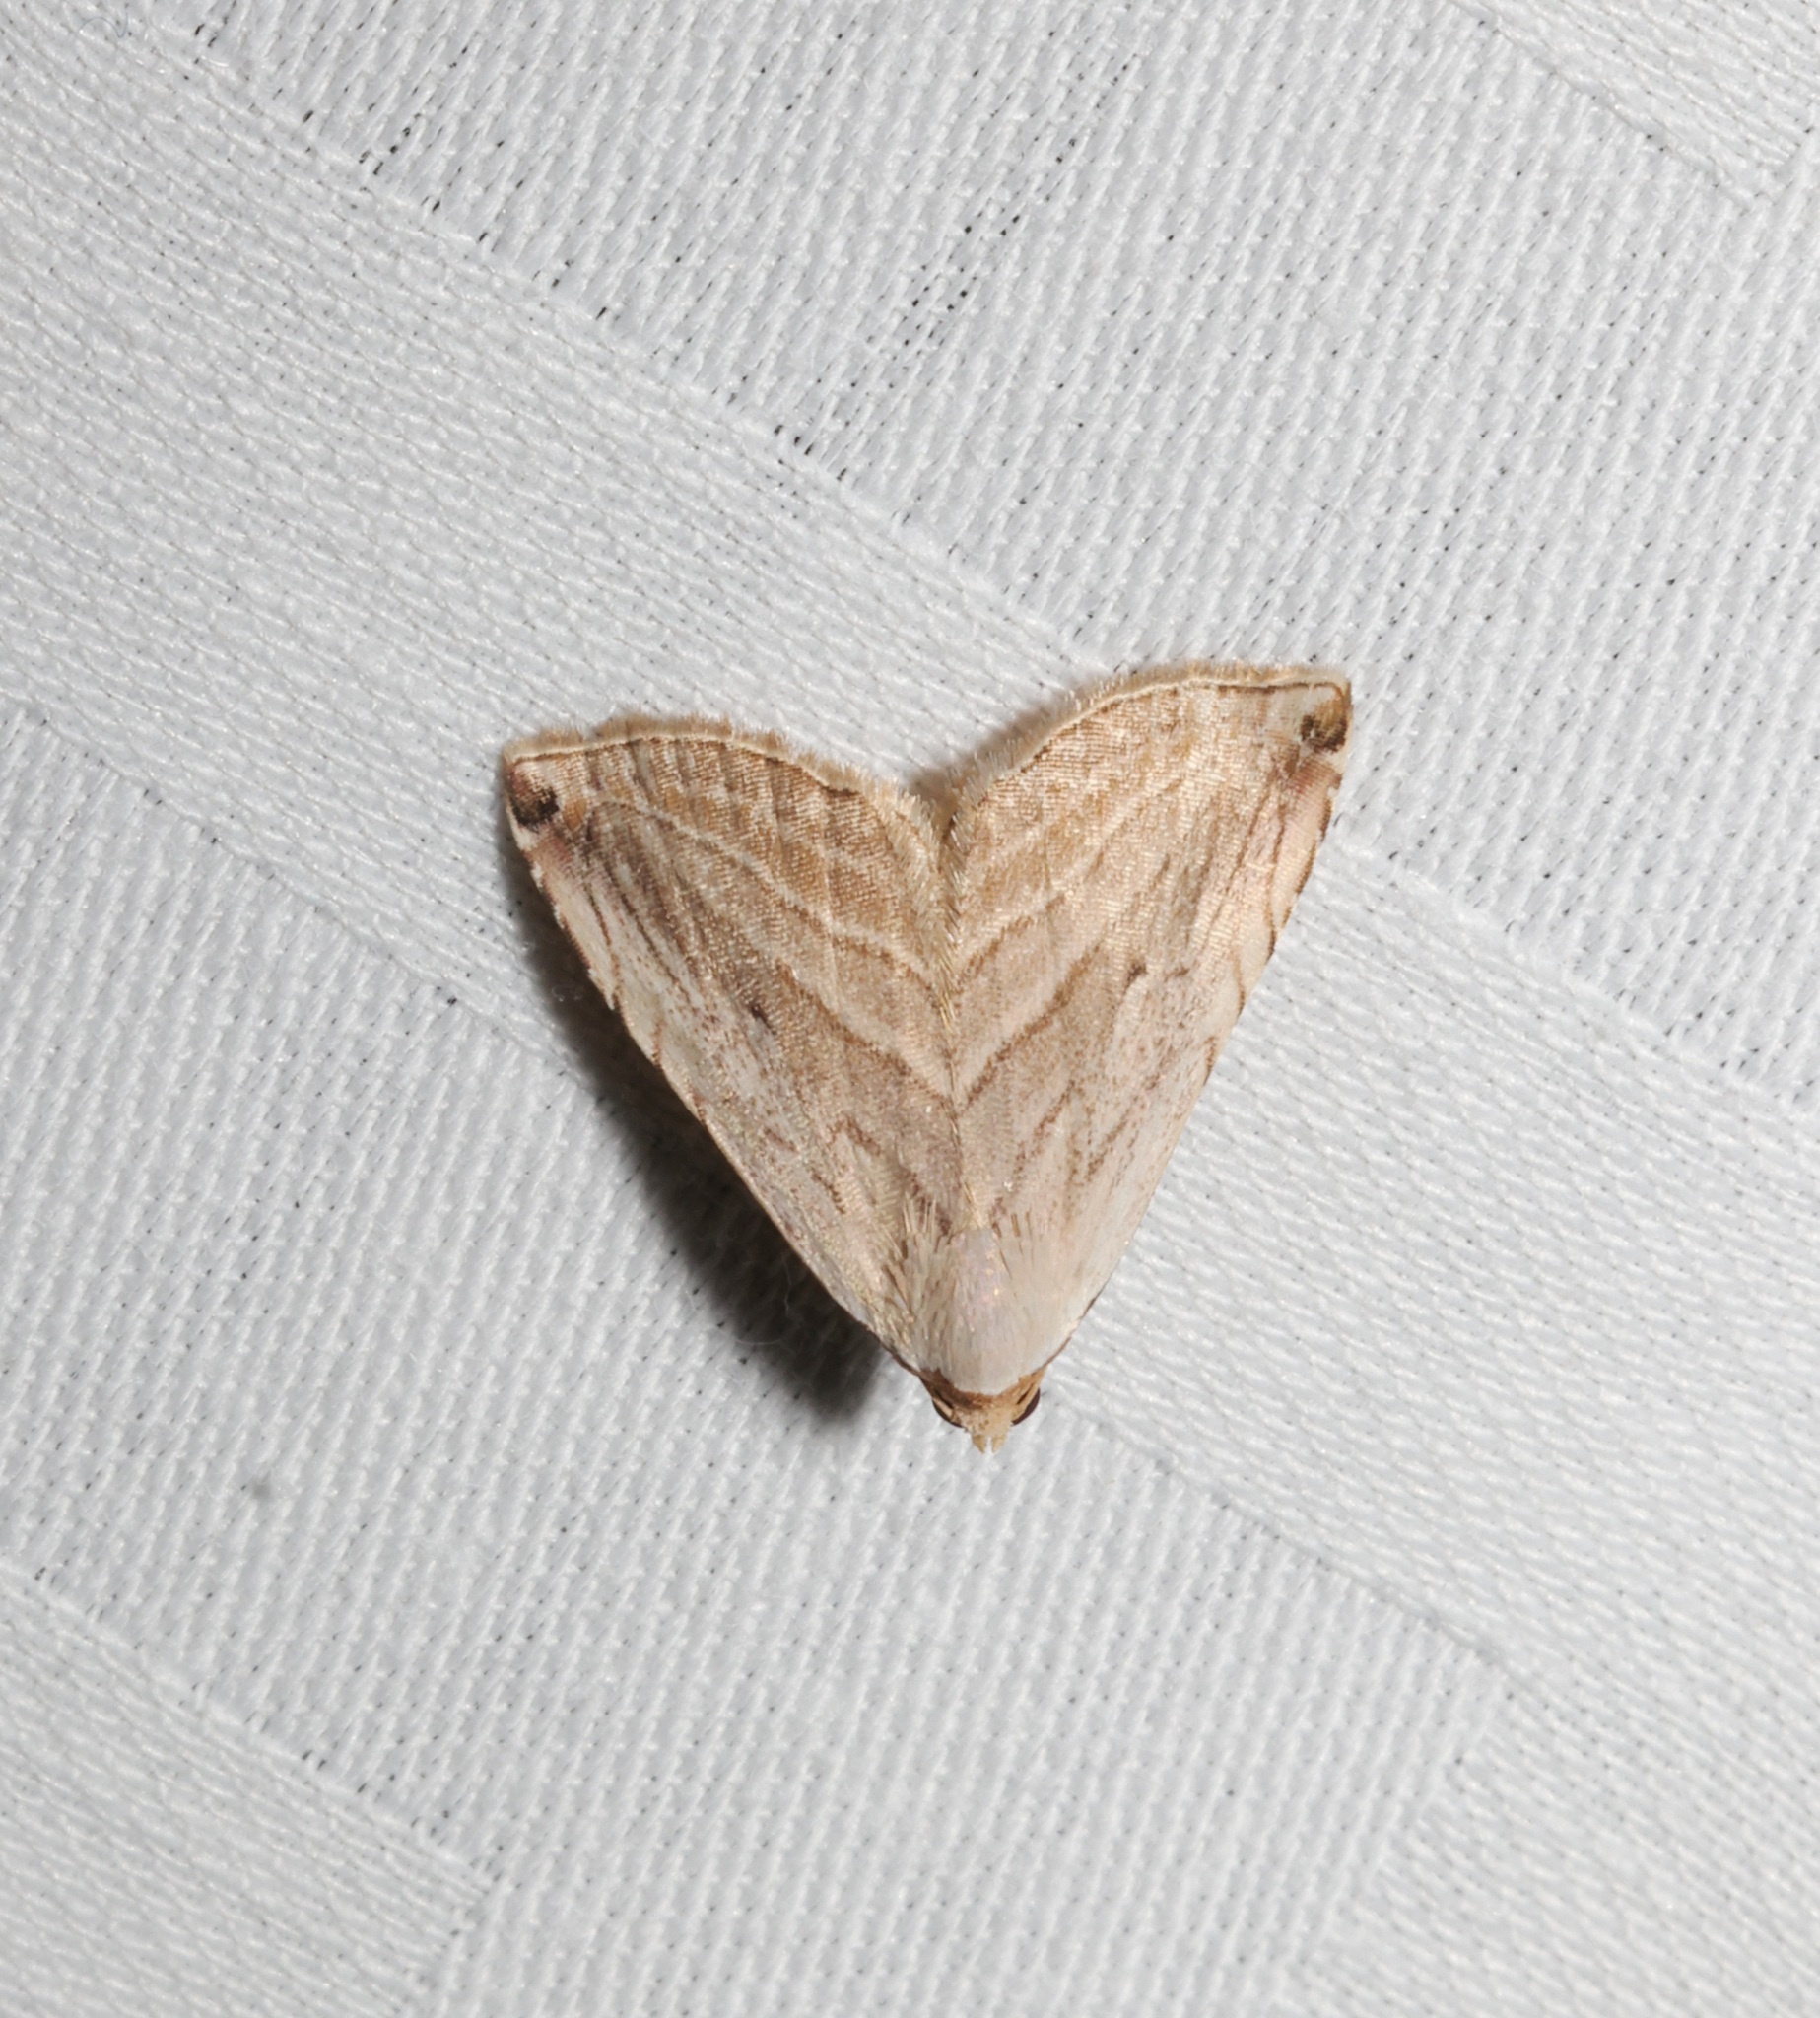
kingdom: Animalia
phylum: Arthropoda
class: Insecta
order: Lepidoptera
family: Noctuidae
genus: Honeyania
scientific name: Honeyania ragusana
